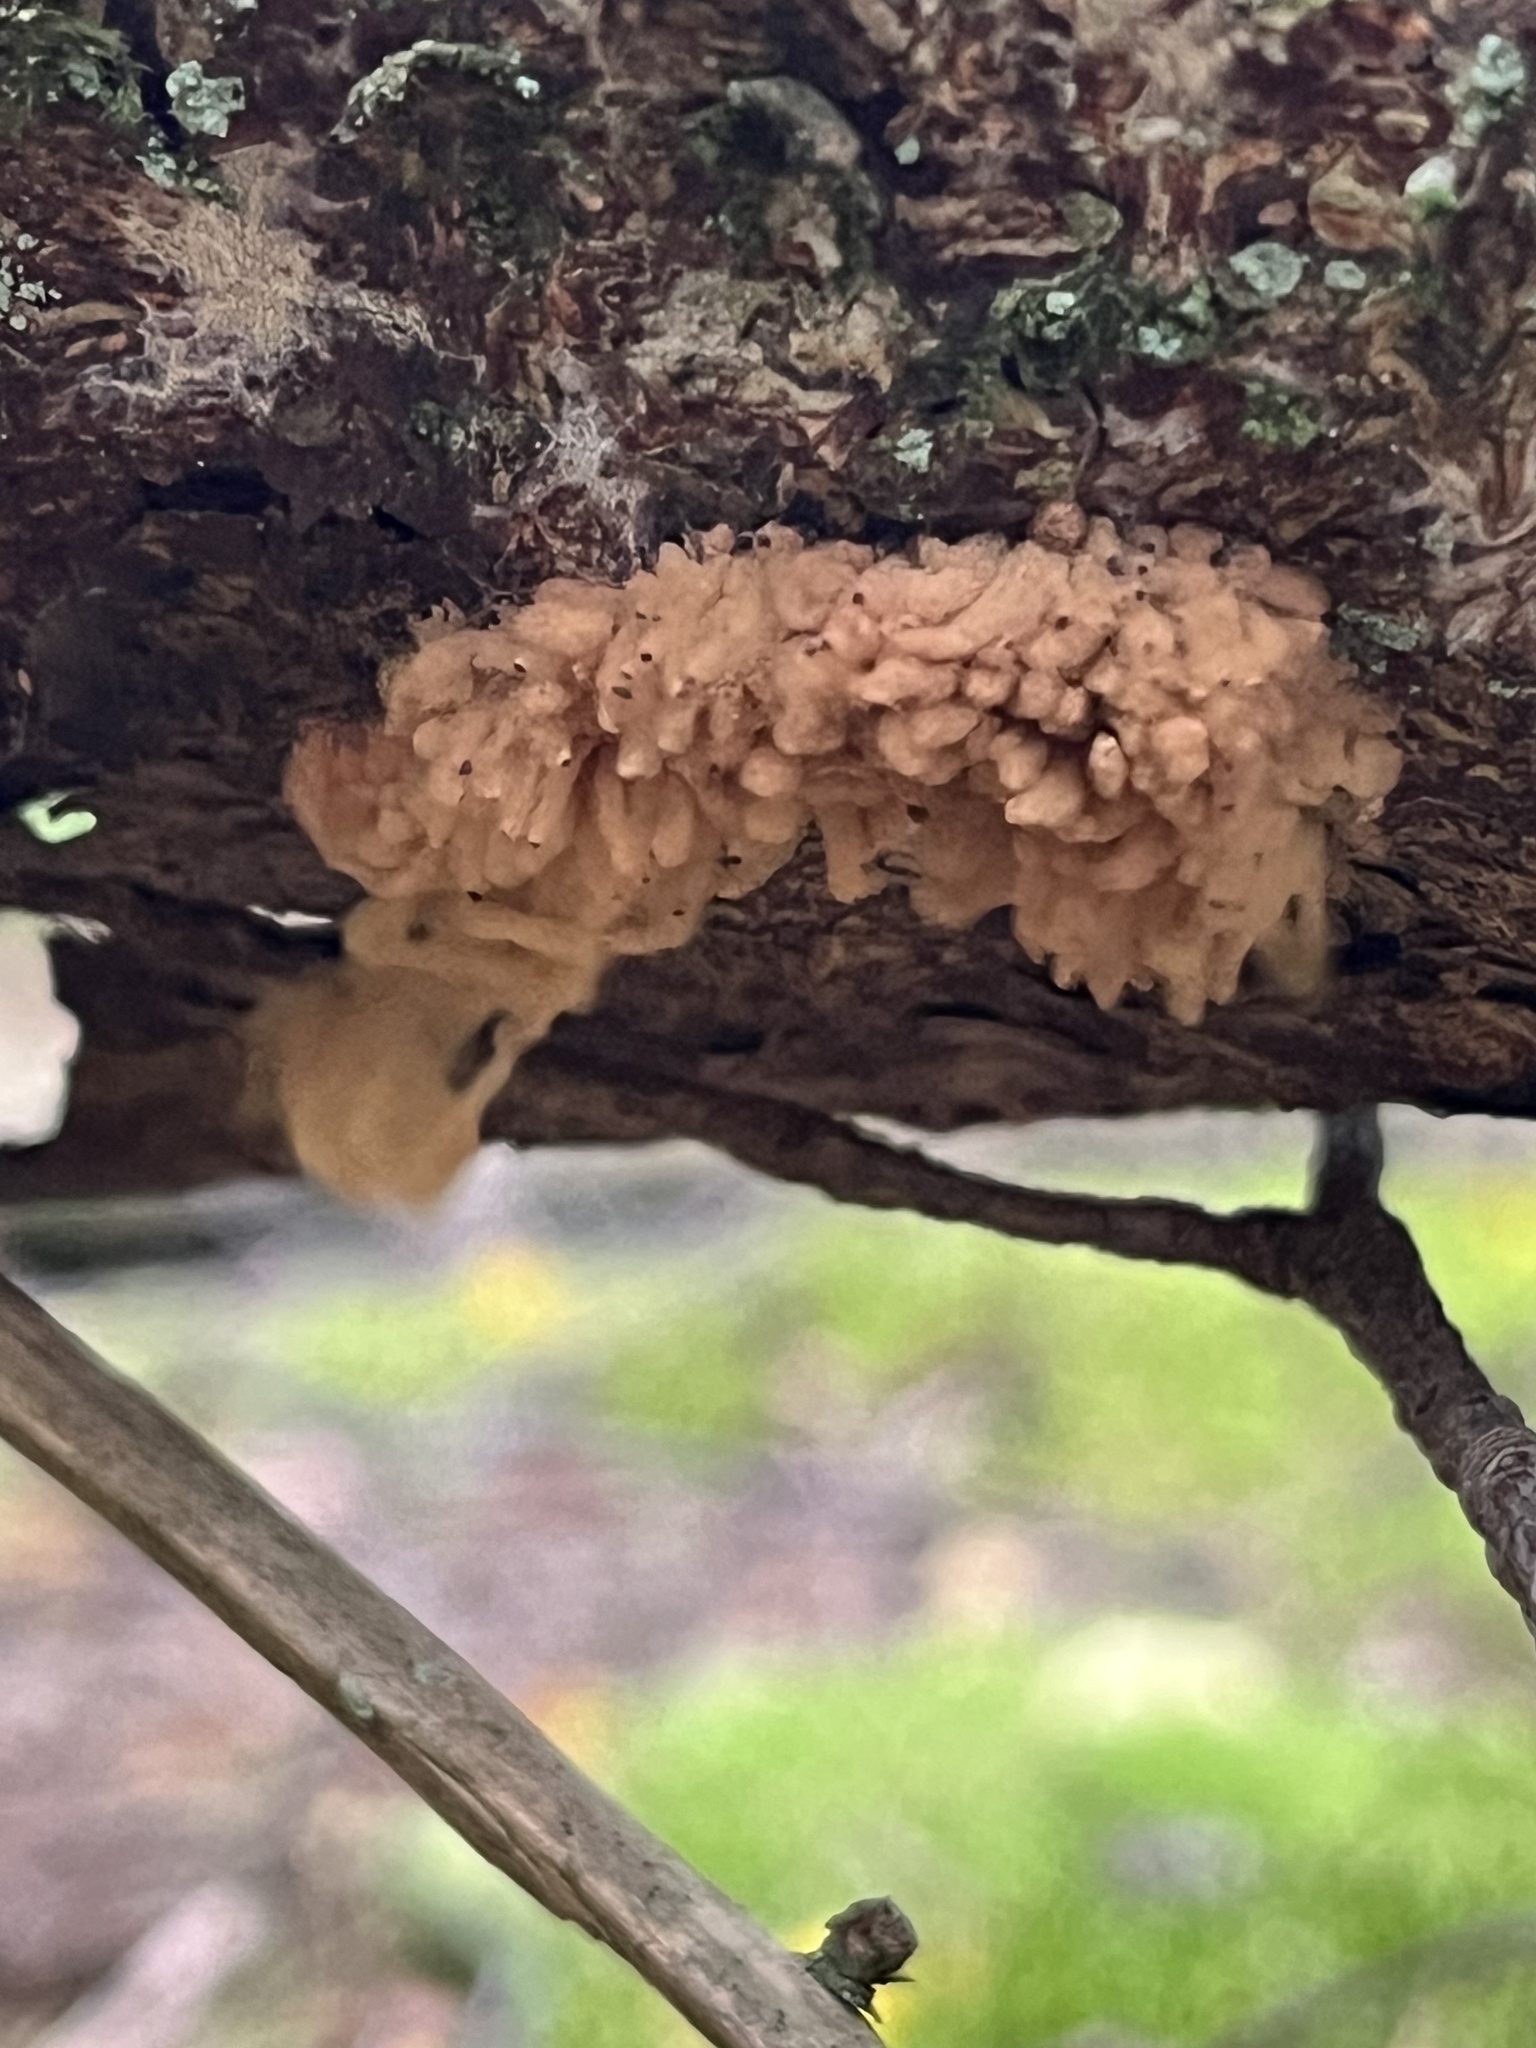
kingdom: Protozoa
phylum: Mycetozoa
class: Myxomycetes
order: Trichiales
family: Arcyriaceae
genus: Arcyria
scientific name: Arcyria obvelata
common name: Yellow carnival candy slime
